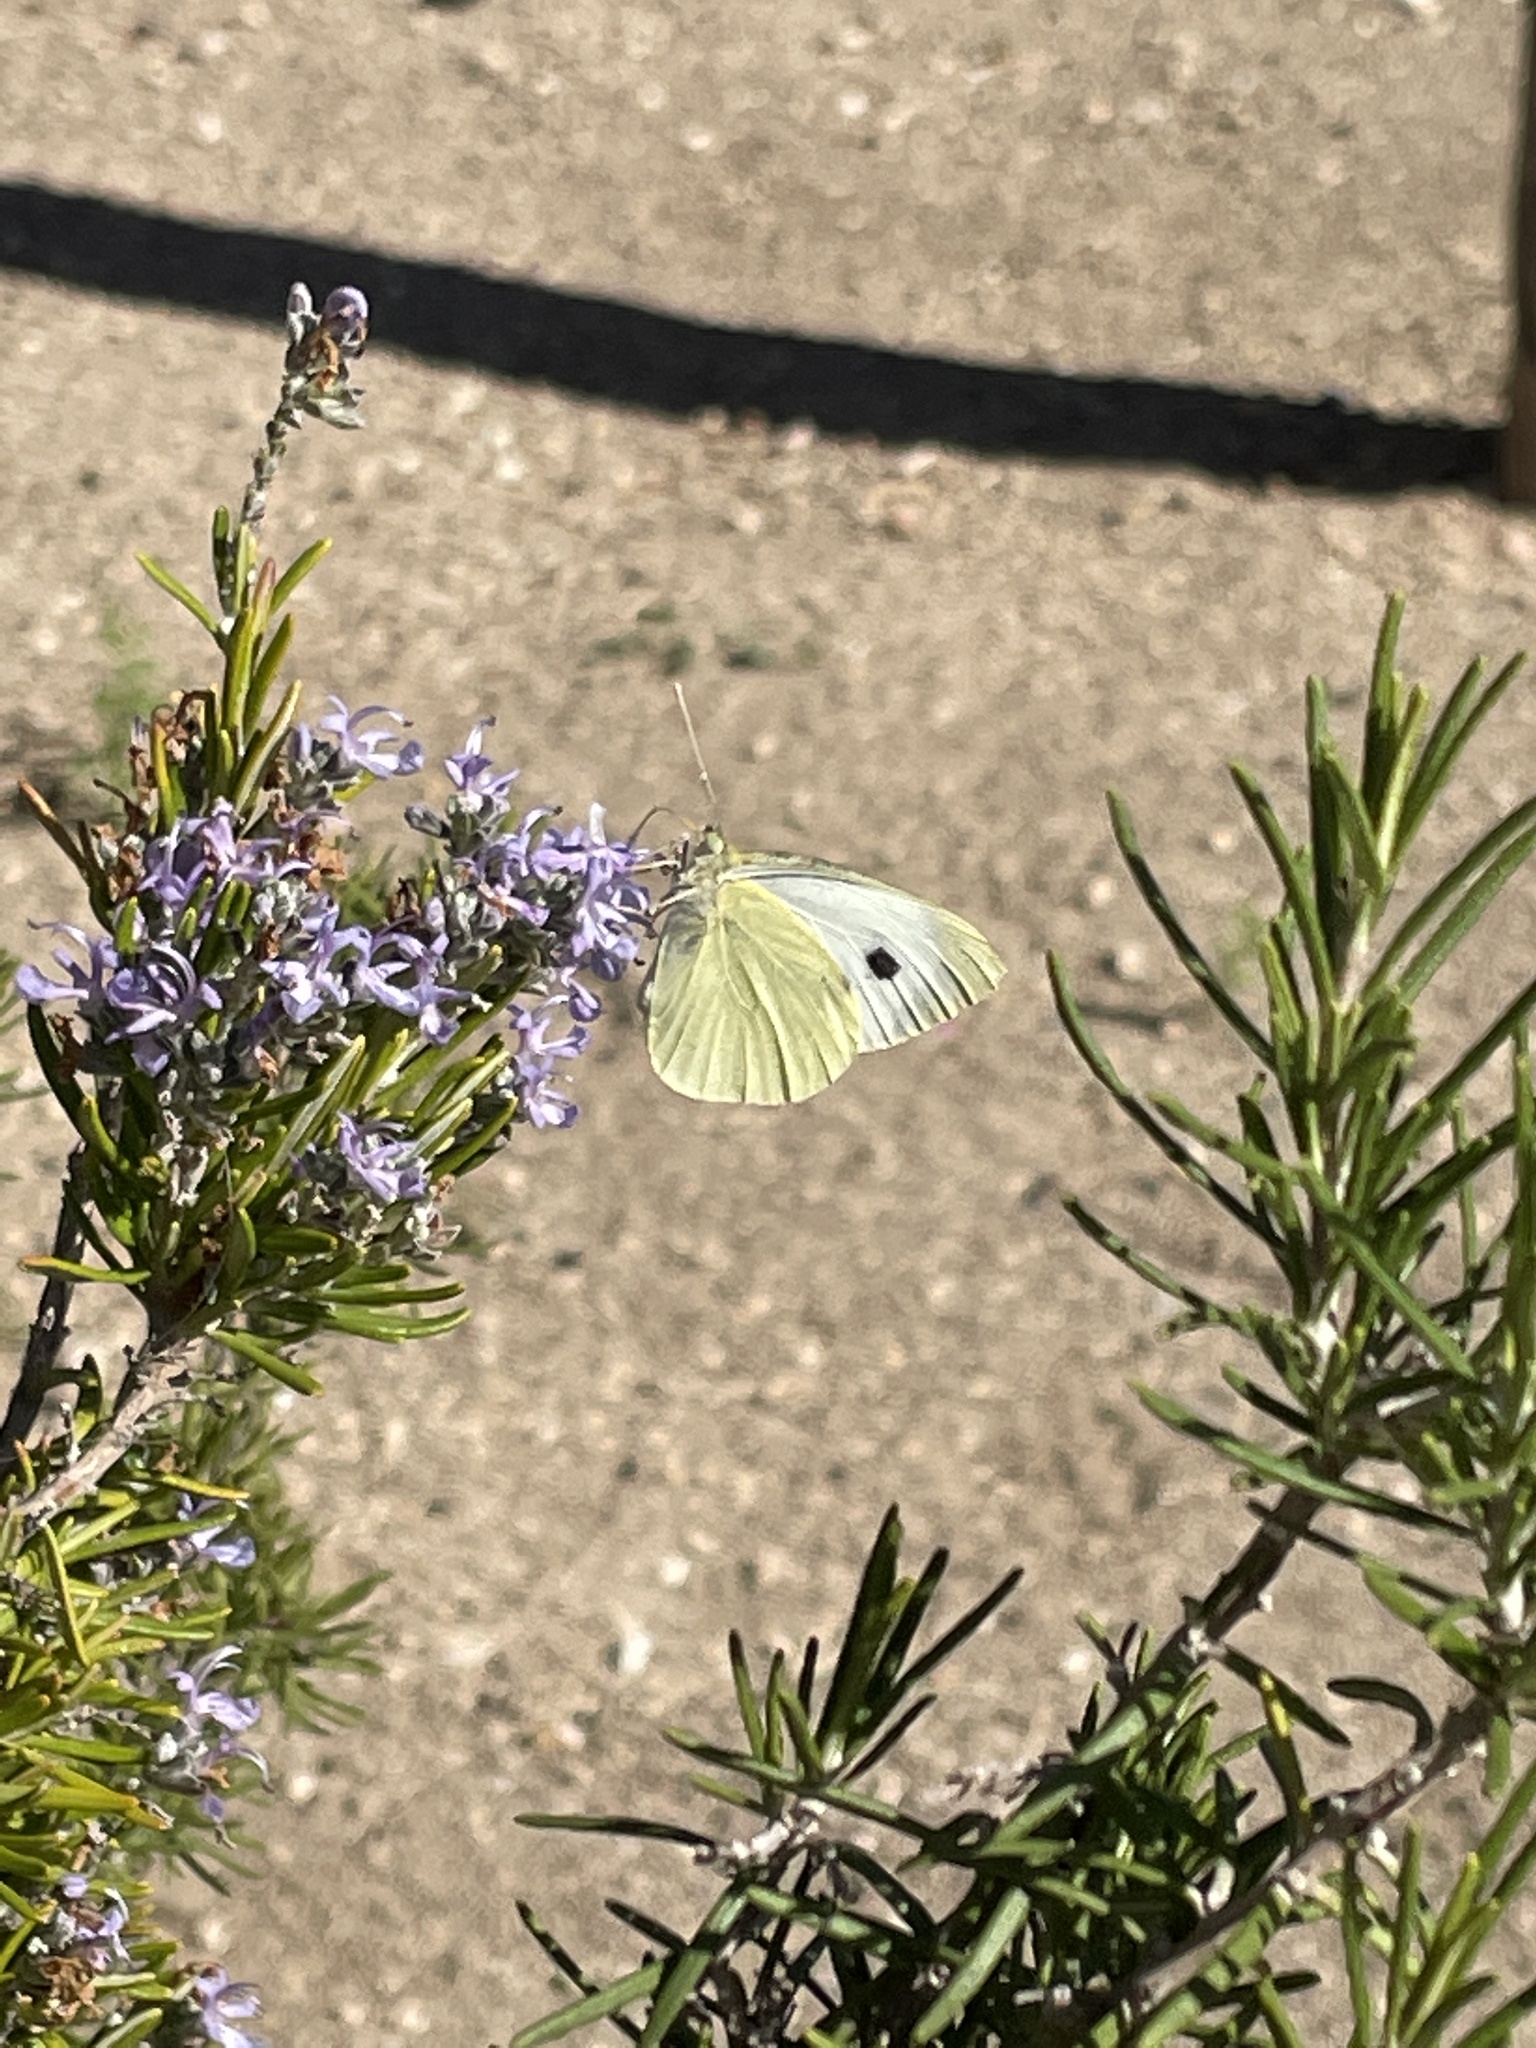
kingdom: Animalia
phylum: Arthropoda
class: Insecta
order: Lepidoptera
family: Pieridae
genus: Pieris
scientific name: Pieris brassicae
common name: Large white
